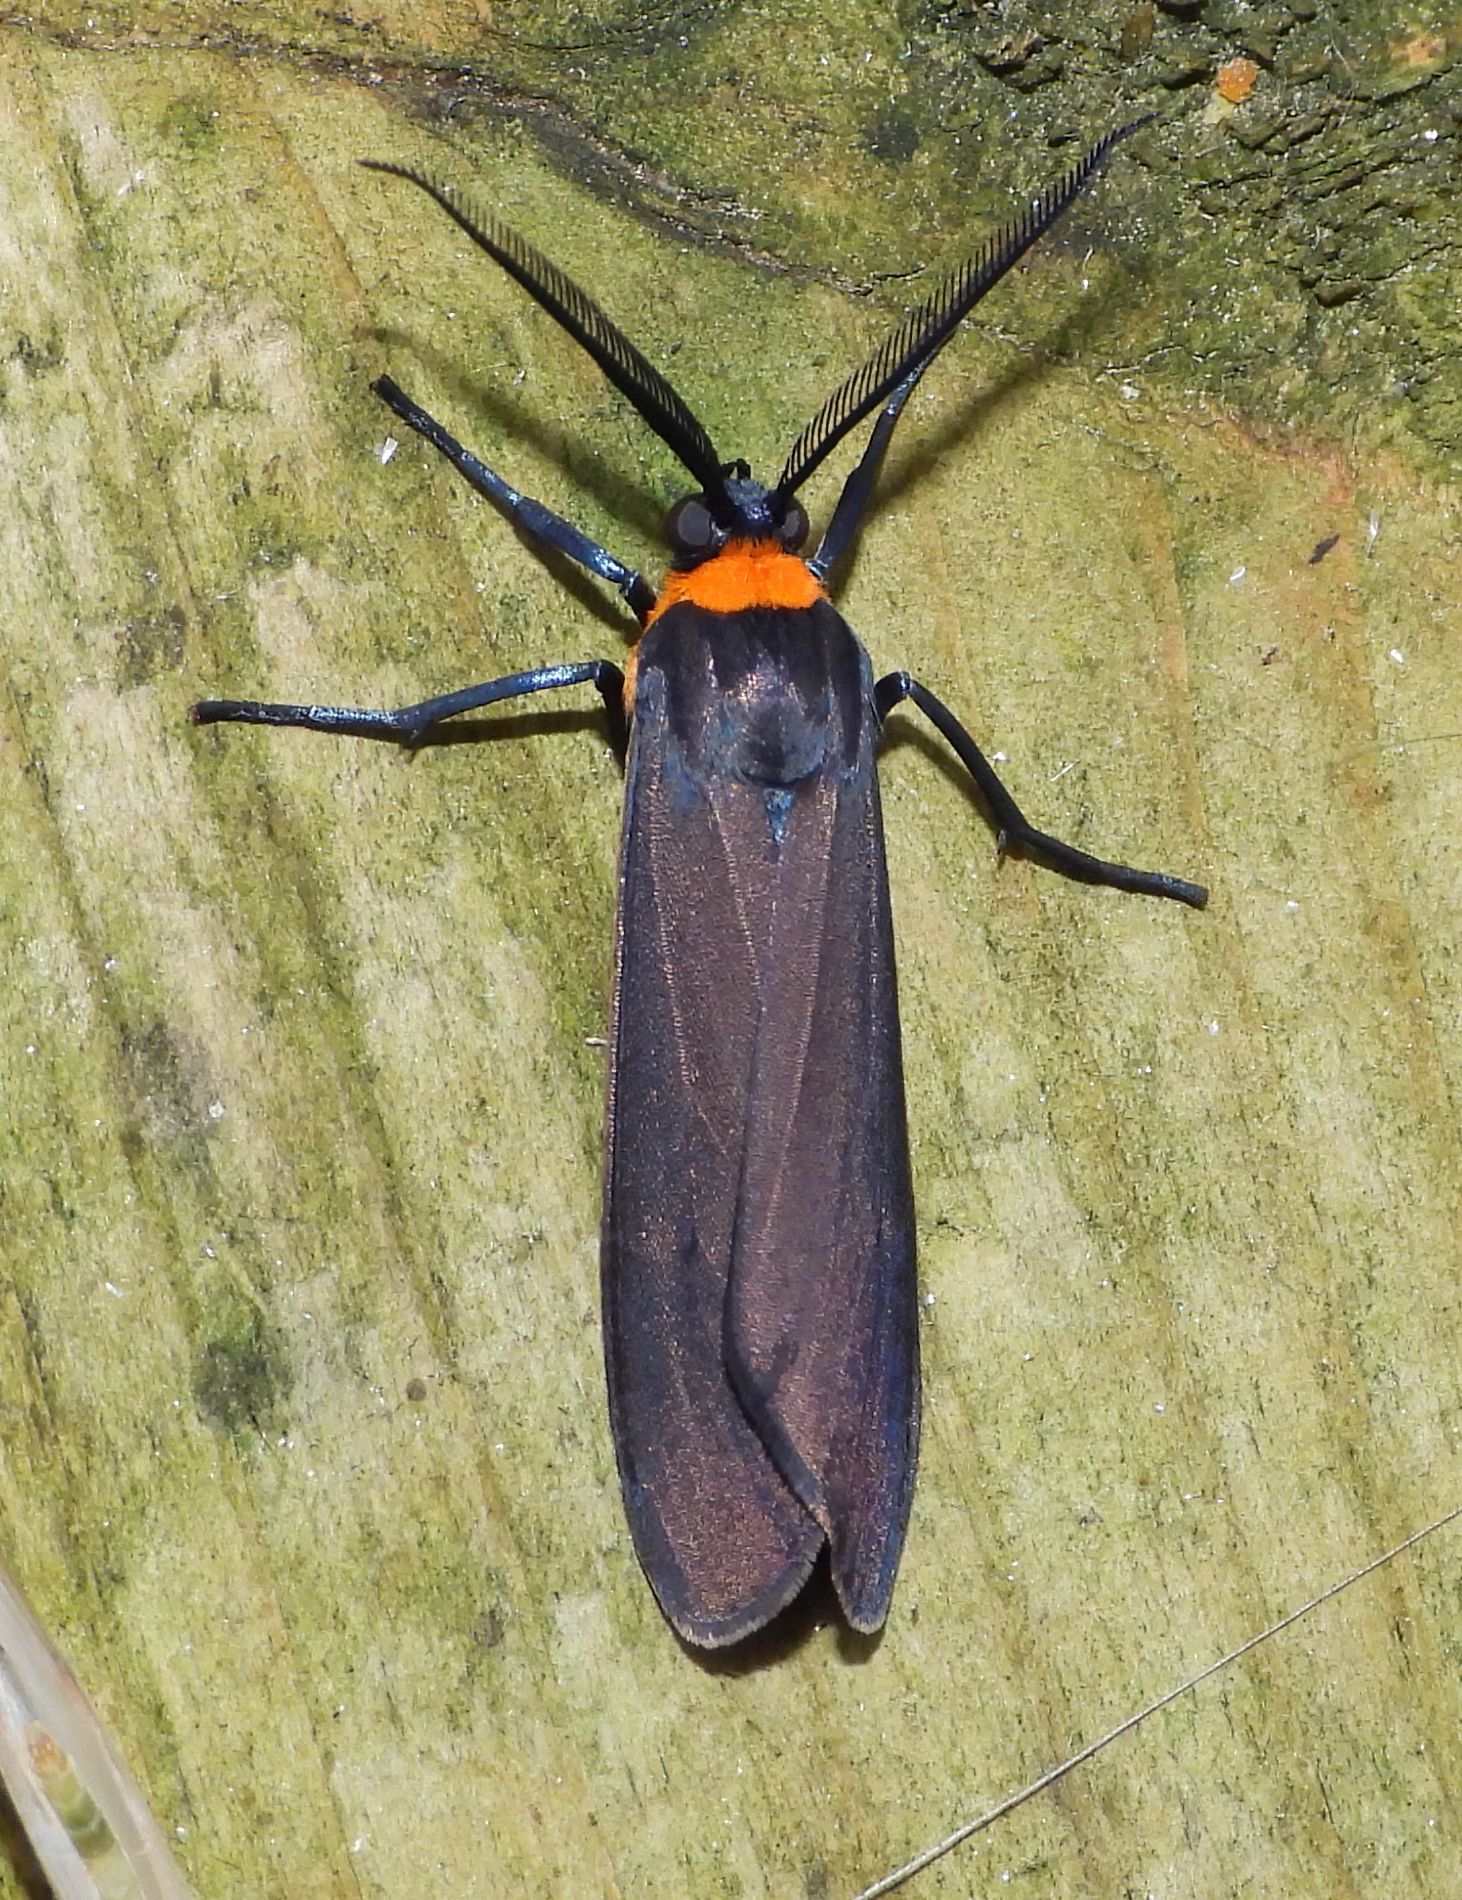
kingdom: Animalia
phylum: Arthropoda
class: Insecta
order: Lepidoptera
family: Erebidae
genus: Cisseps
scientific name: Cisseps fulvicollis
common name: Yellow-collared scape moth
